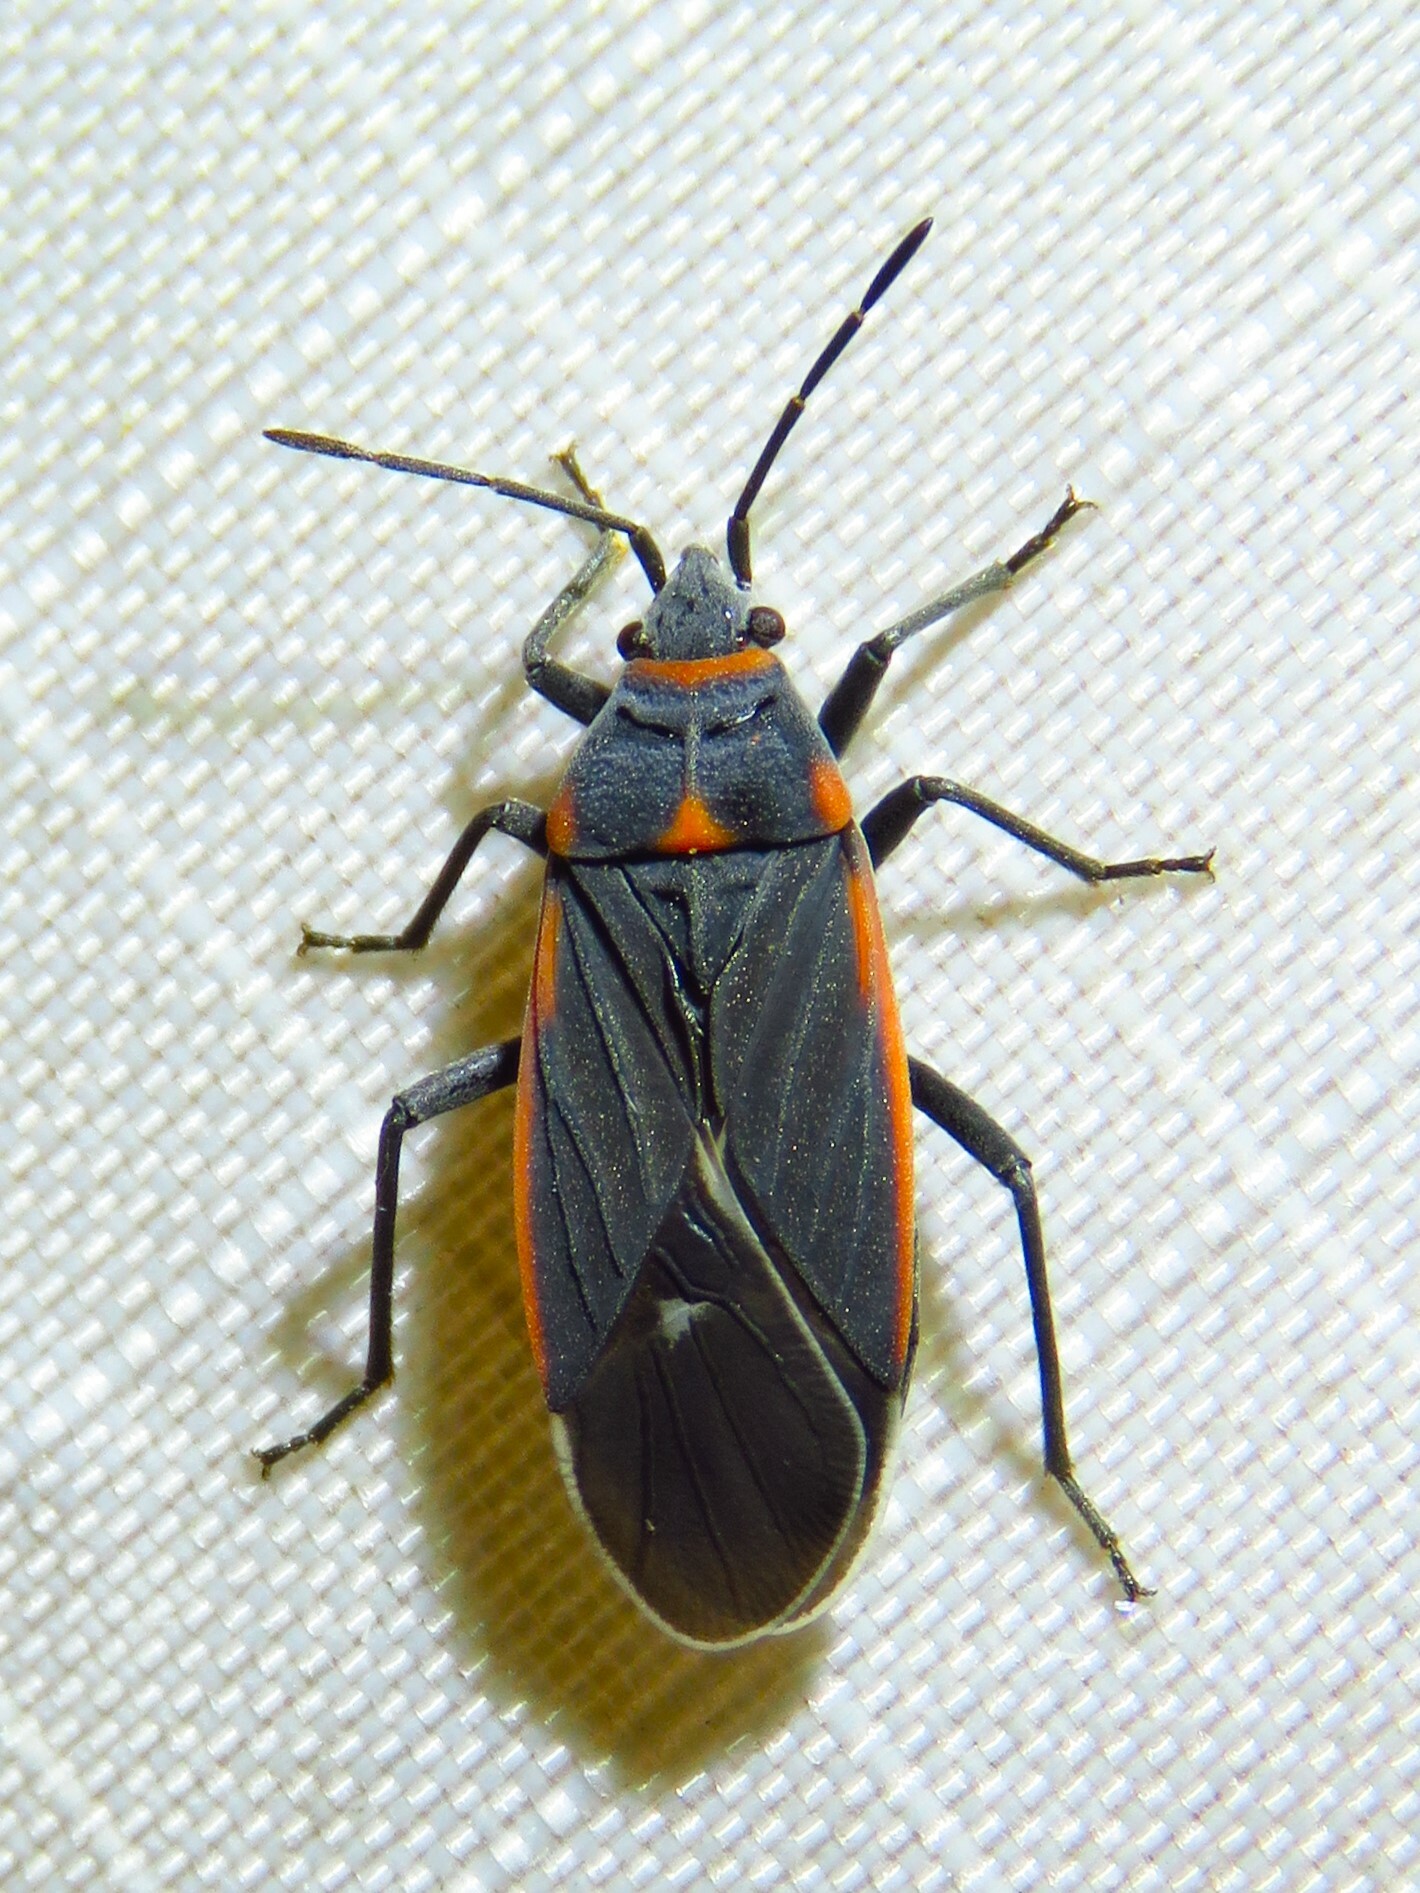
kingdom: Animalia
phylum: Arthropoda
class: Insecta
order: Hemiptera
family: Lygaeidae
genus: Melacoryphus
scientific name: Melacoryphus lateralis
